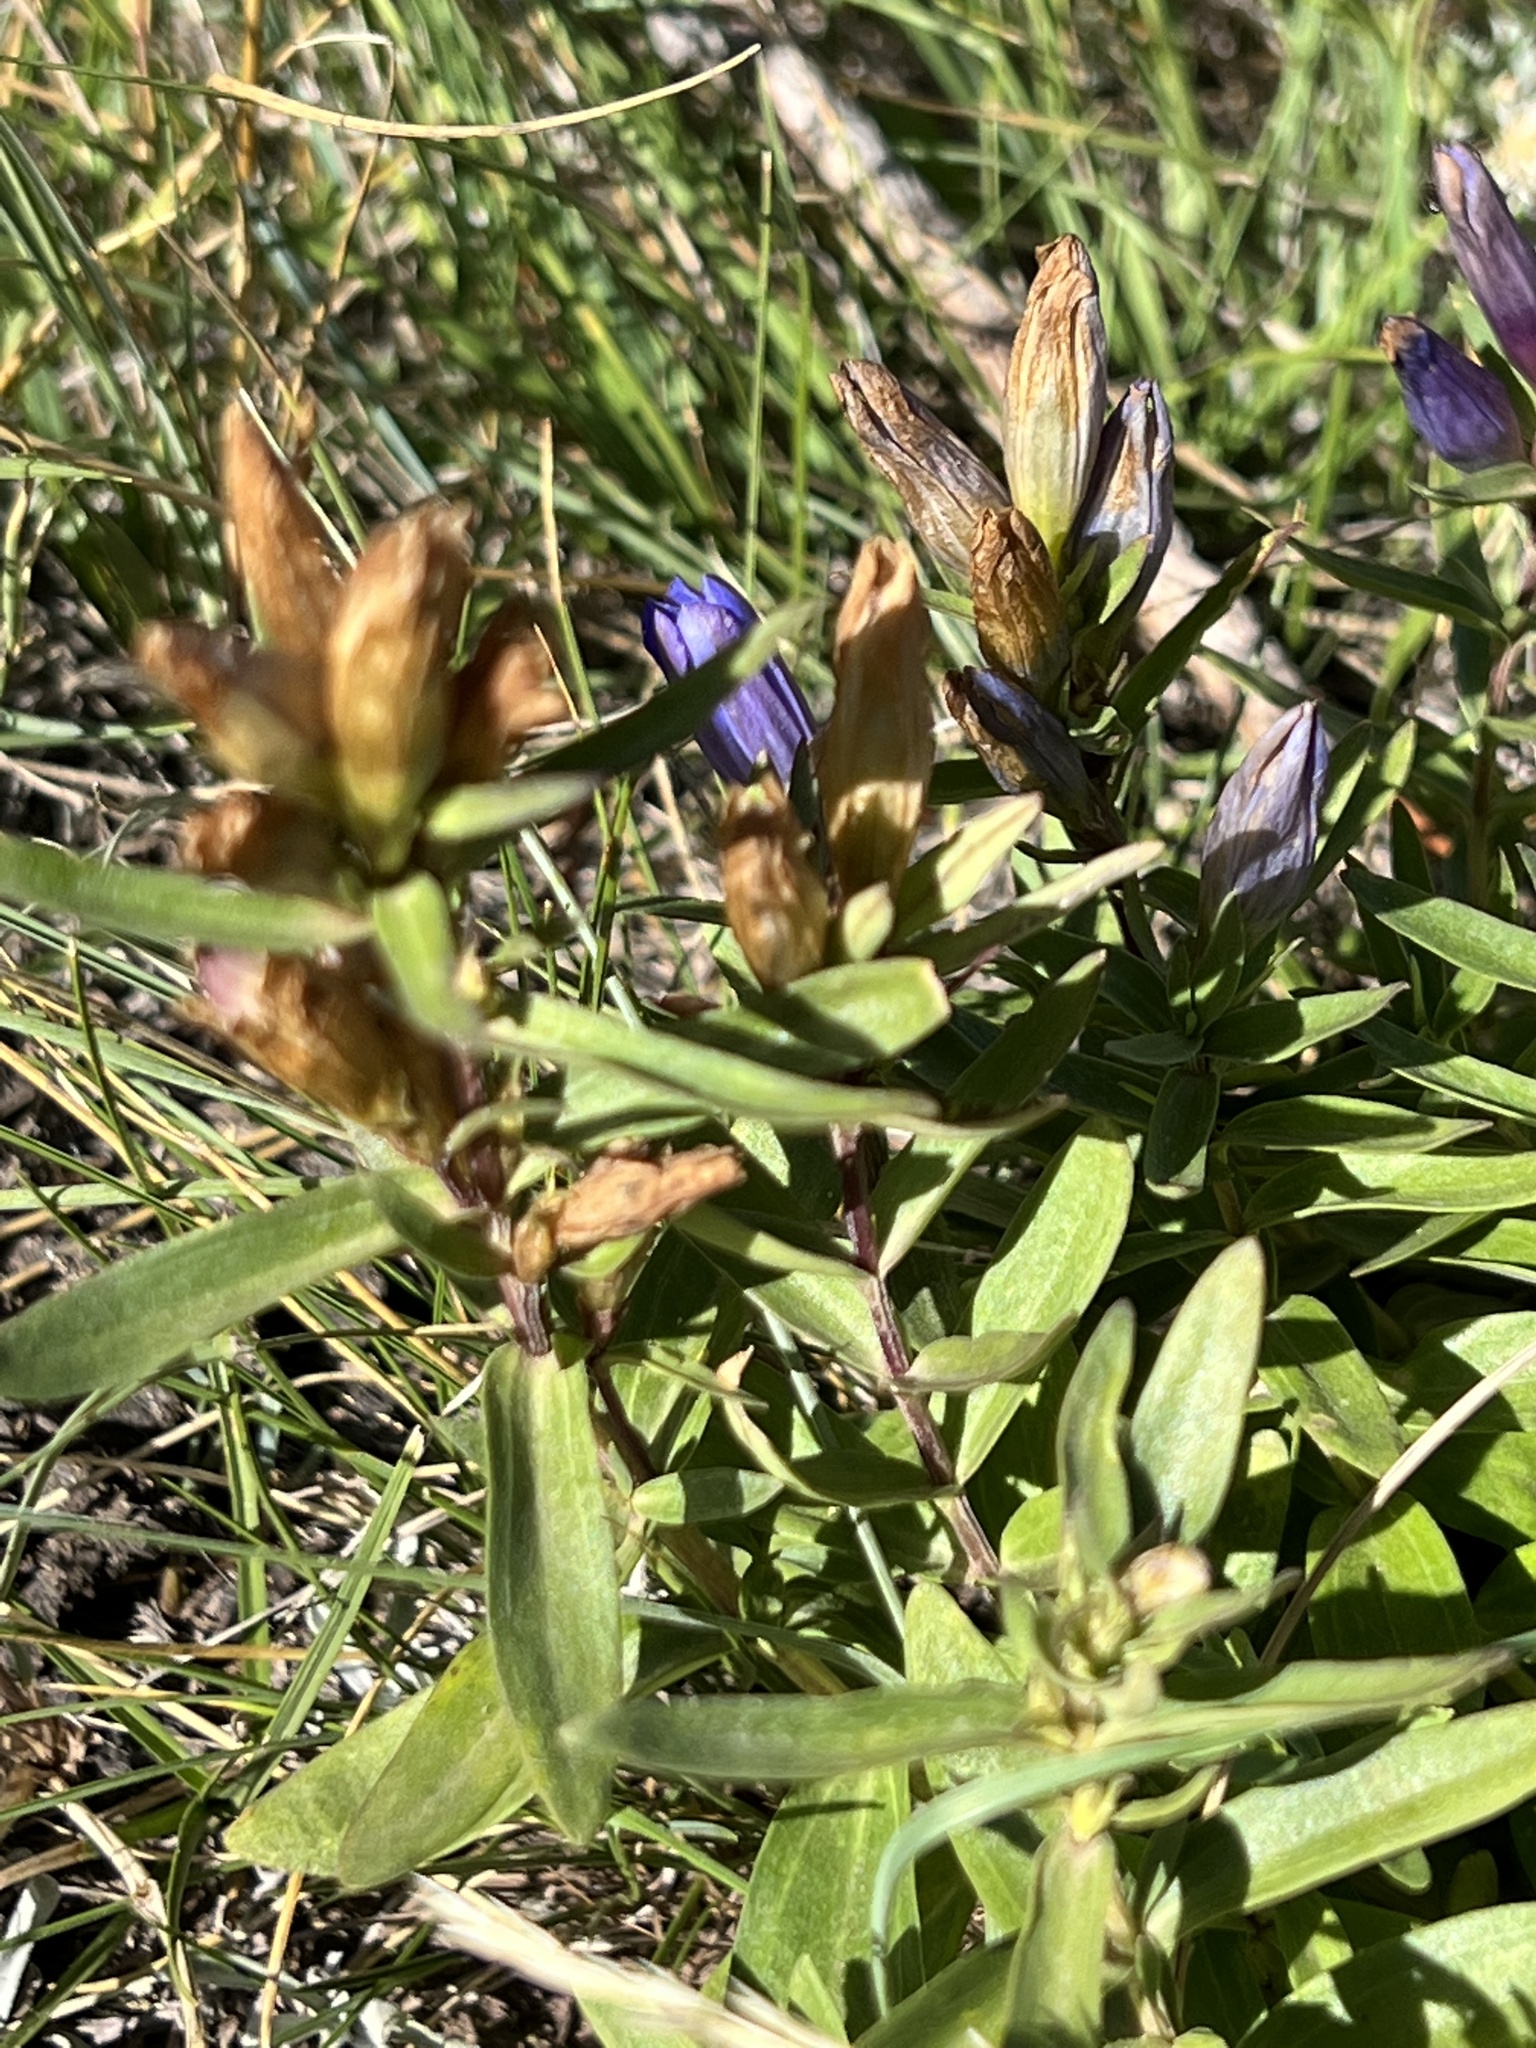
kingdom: Plantae
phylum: Tracheophyta
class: Magnoliopsida
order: Gentianales
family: Gentianaceae
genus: Gentiana
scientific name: Gentiana affinis
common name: Rocky mountain gentian
